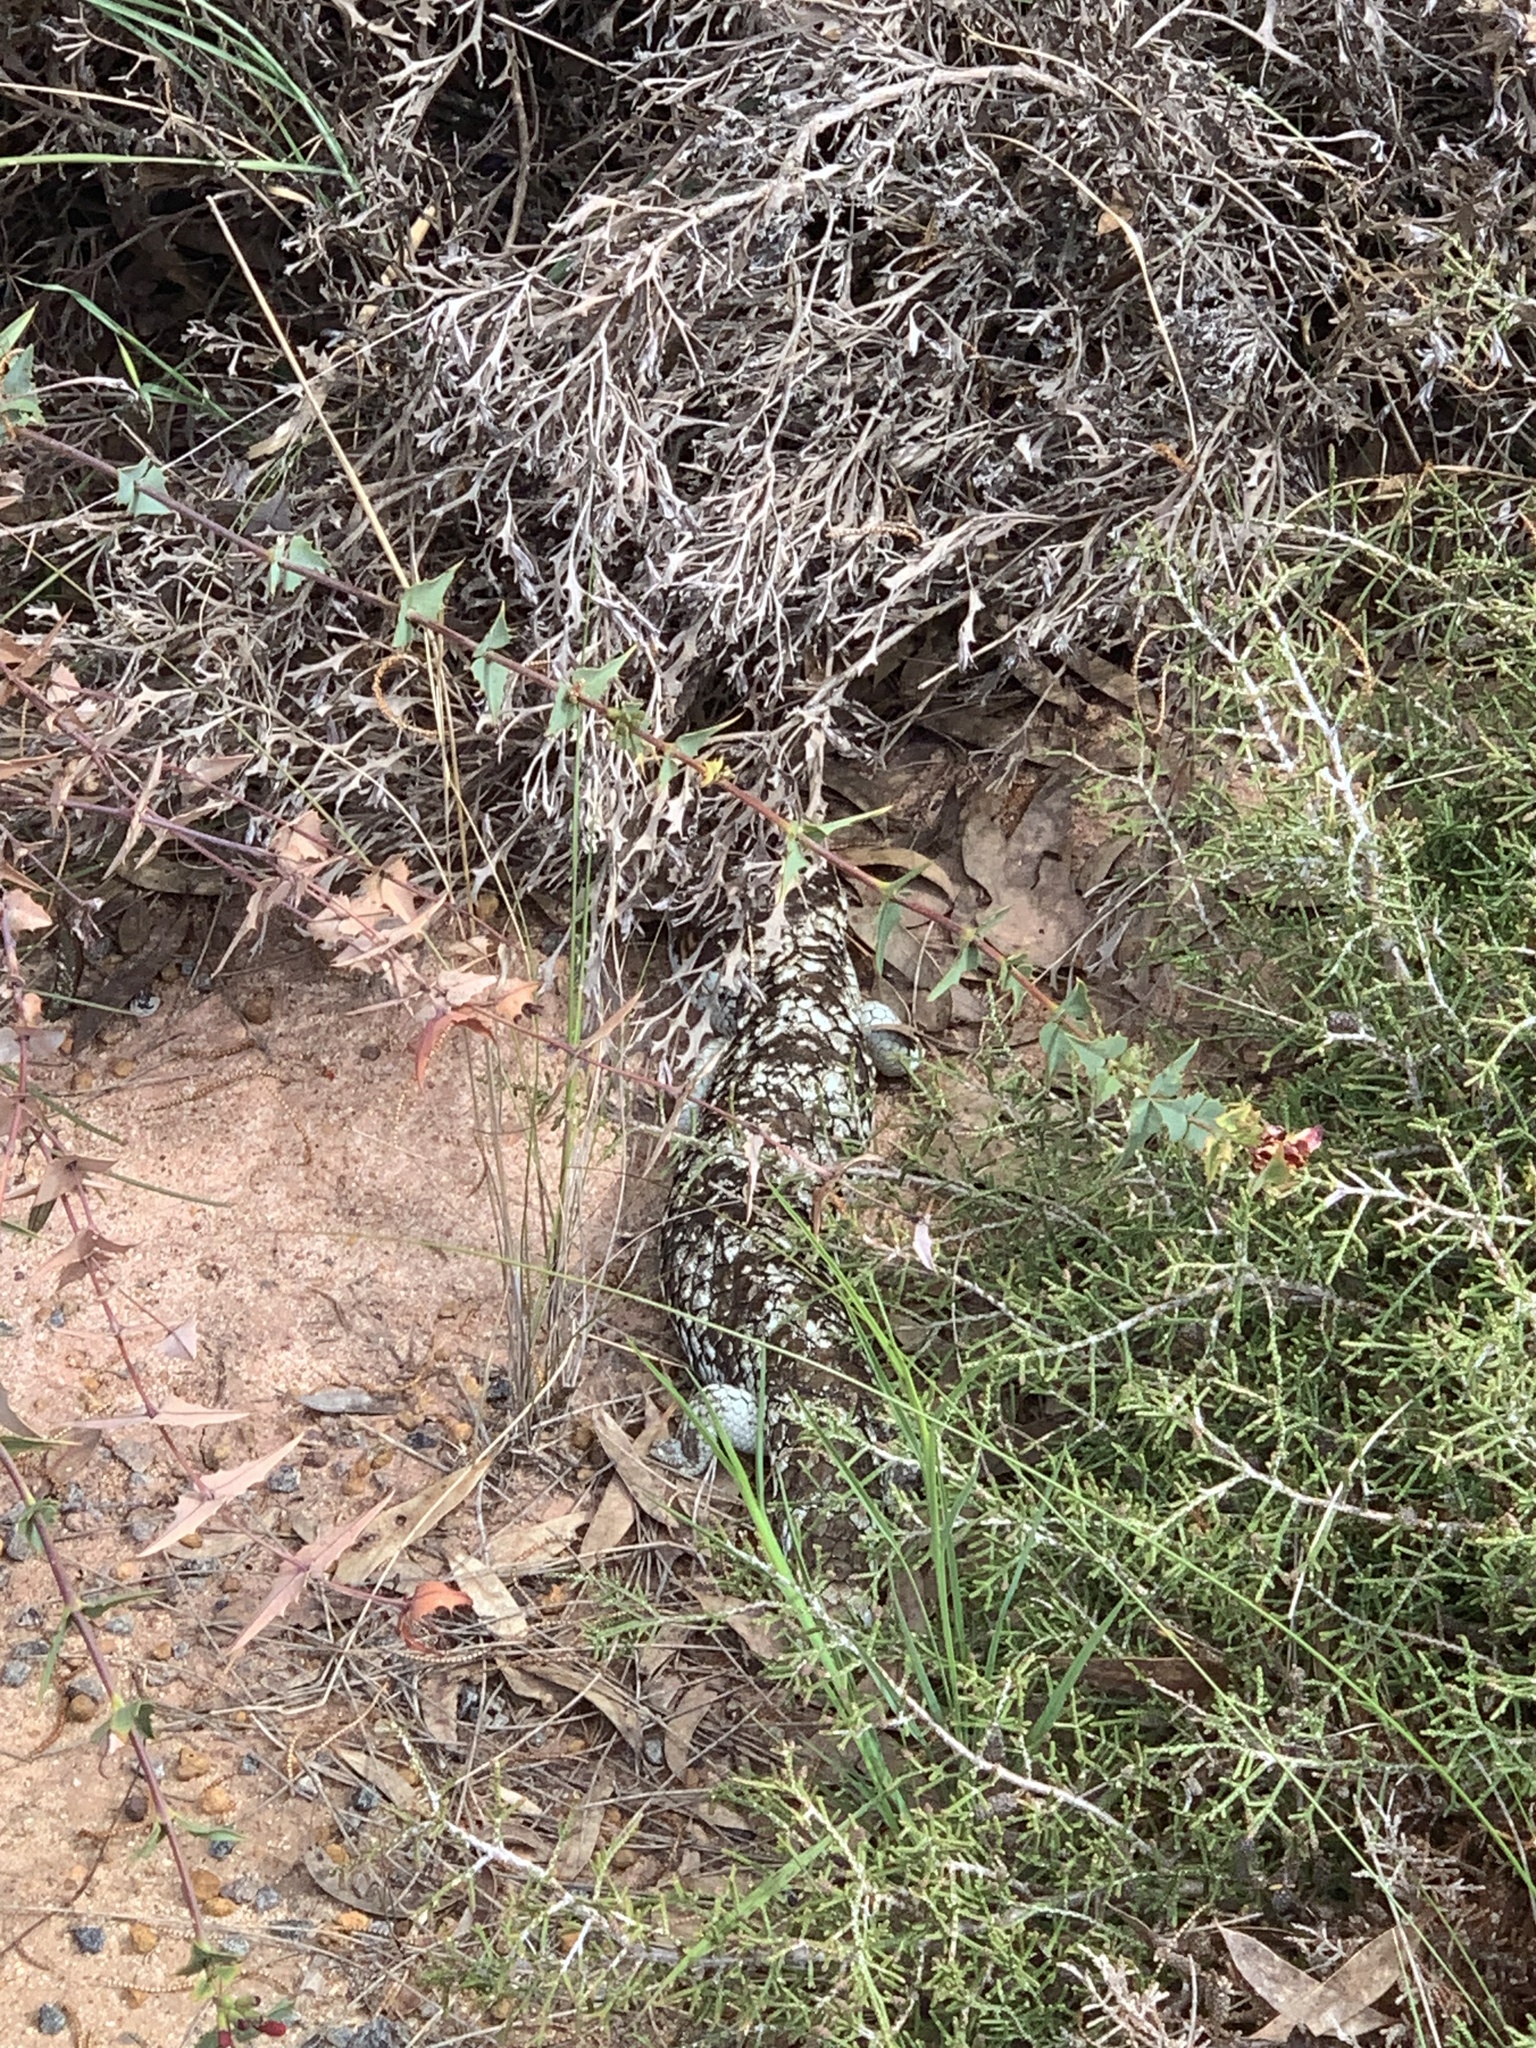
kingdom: Animalia
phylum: Chordata
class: Squamata
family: Scincidae
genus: Tiliqua
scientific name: Tiliqua rugosa
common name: Pinecone lizard
